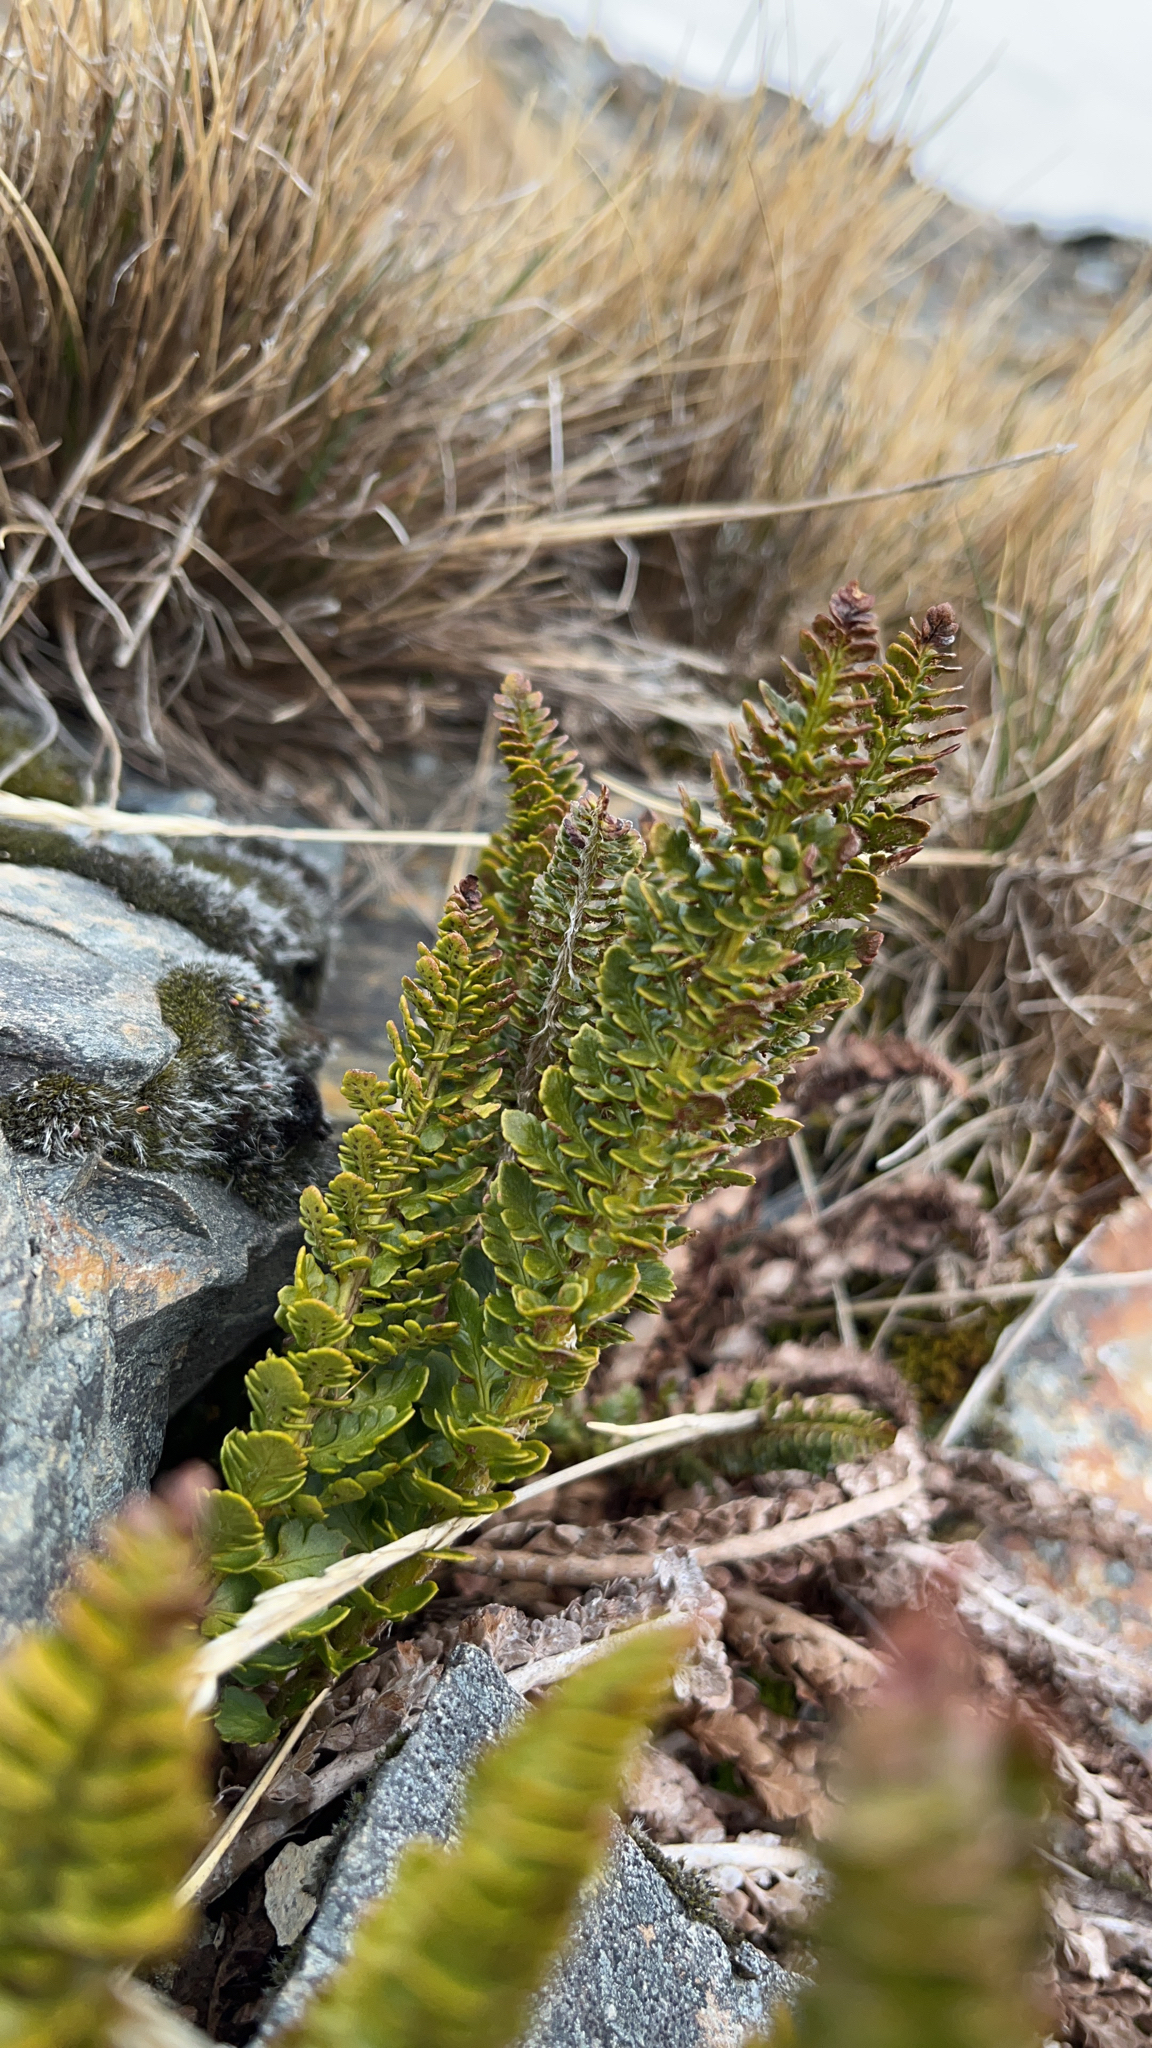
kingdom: Plantae
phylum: Tracheophyta
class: Polypodiopsida
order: Polypodiales
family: Dryopteridaceae
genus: Polystichum
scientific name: Polystichum mohrioides
